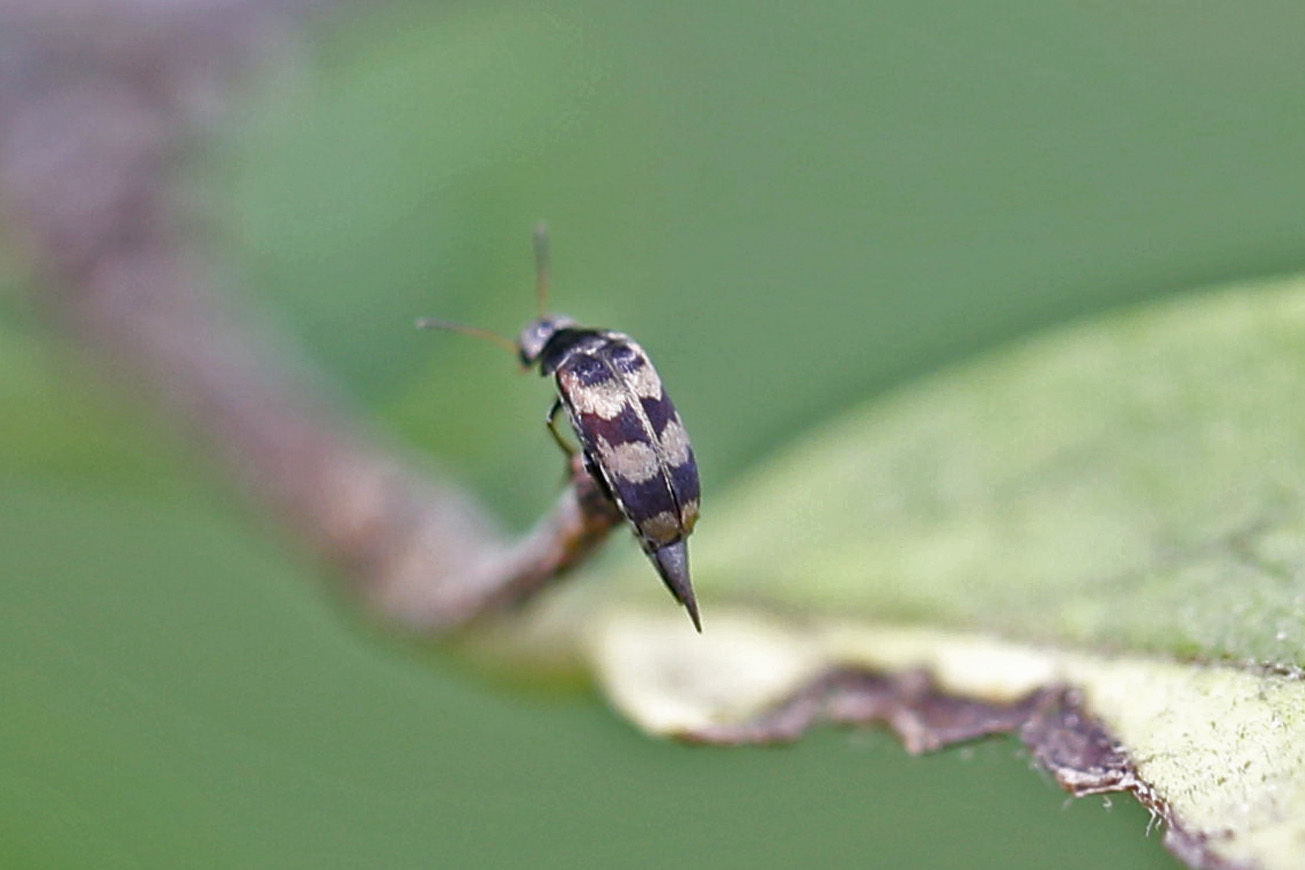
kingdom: Animalia
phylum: Arthropoda
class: Insecta
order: Coleoptera
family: Mordellidae
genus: Falsomordellistena
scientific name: Falsomordellistena pubescens
